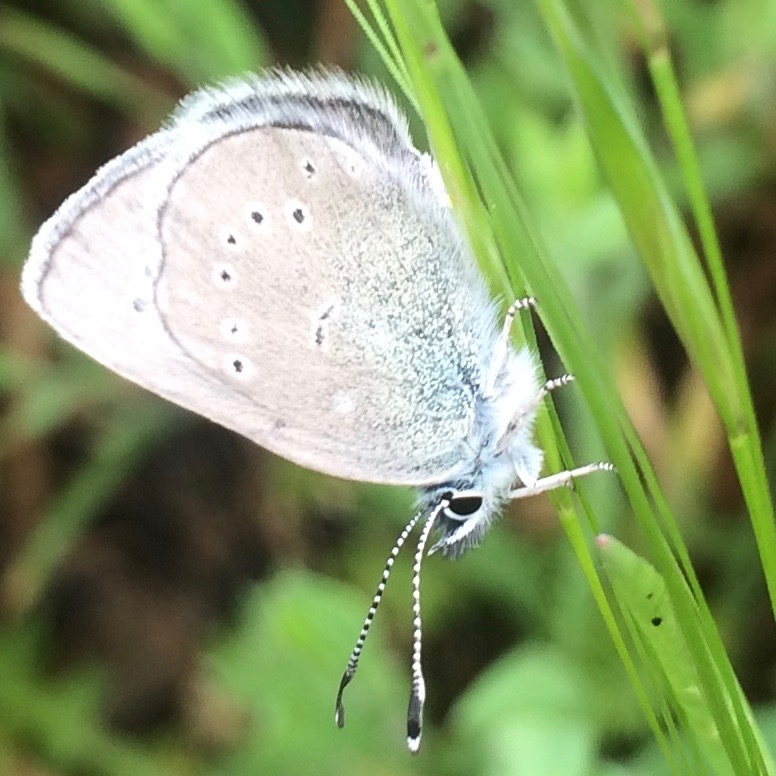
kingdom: Animalia
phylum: Arthropoda
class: Insecta
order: Lepidoptera
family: Lycaenidae
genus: Glaucopsyche
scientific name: Glaucopsyche lygdamus
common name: Silvery blue
